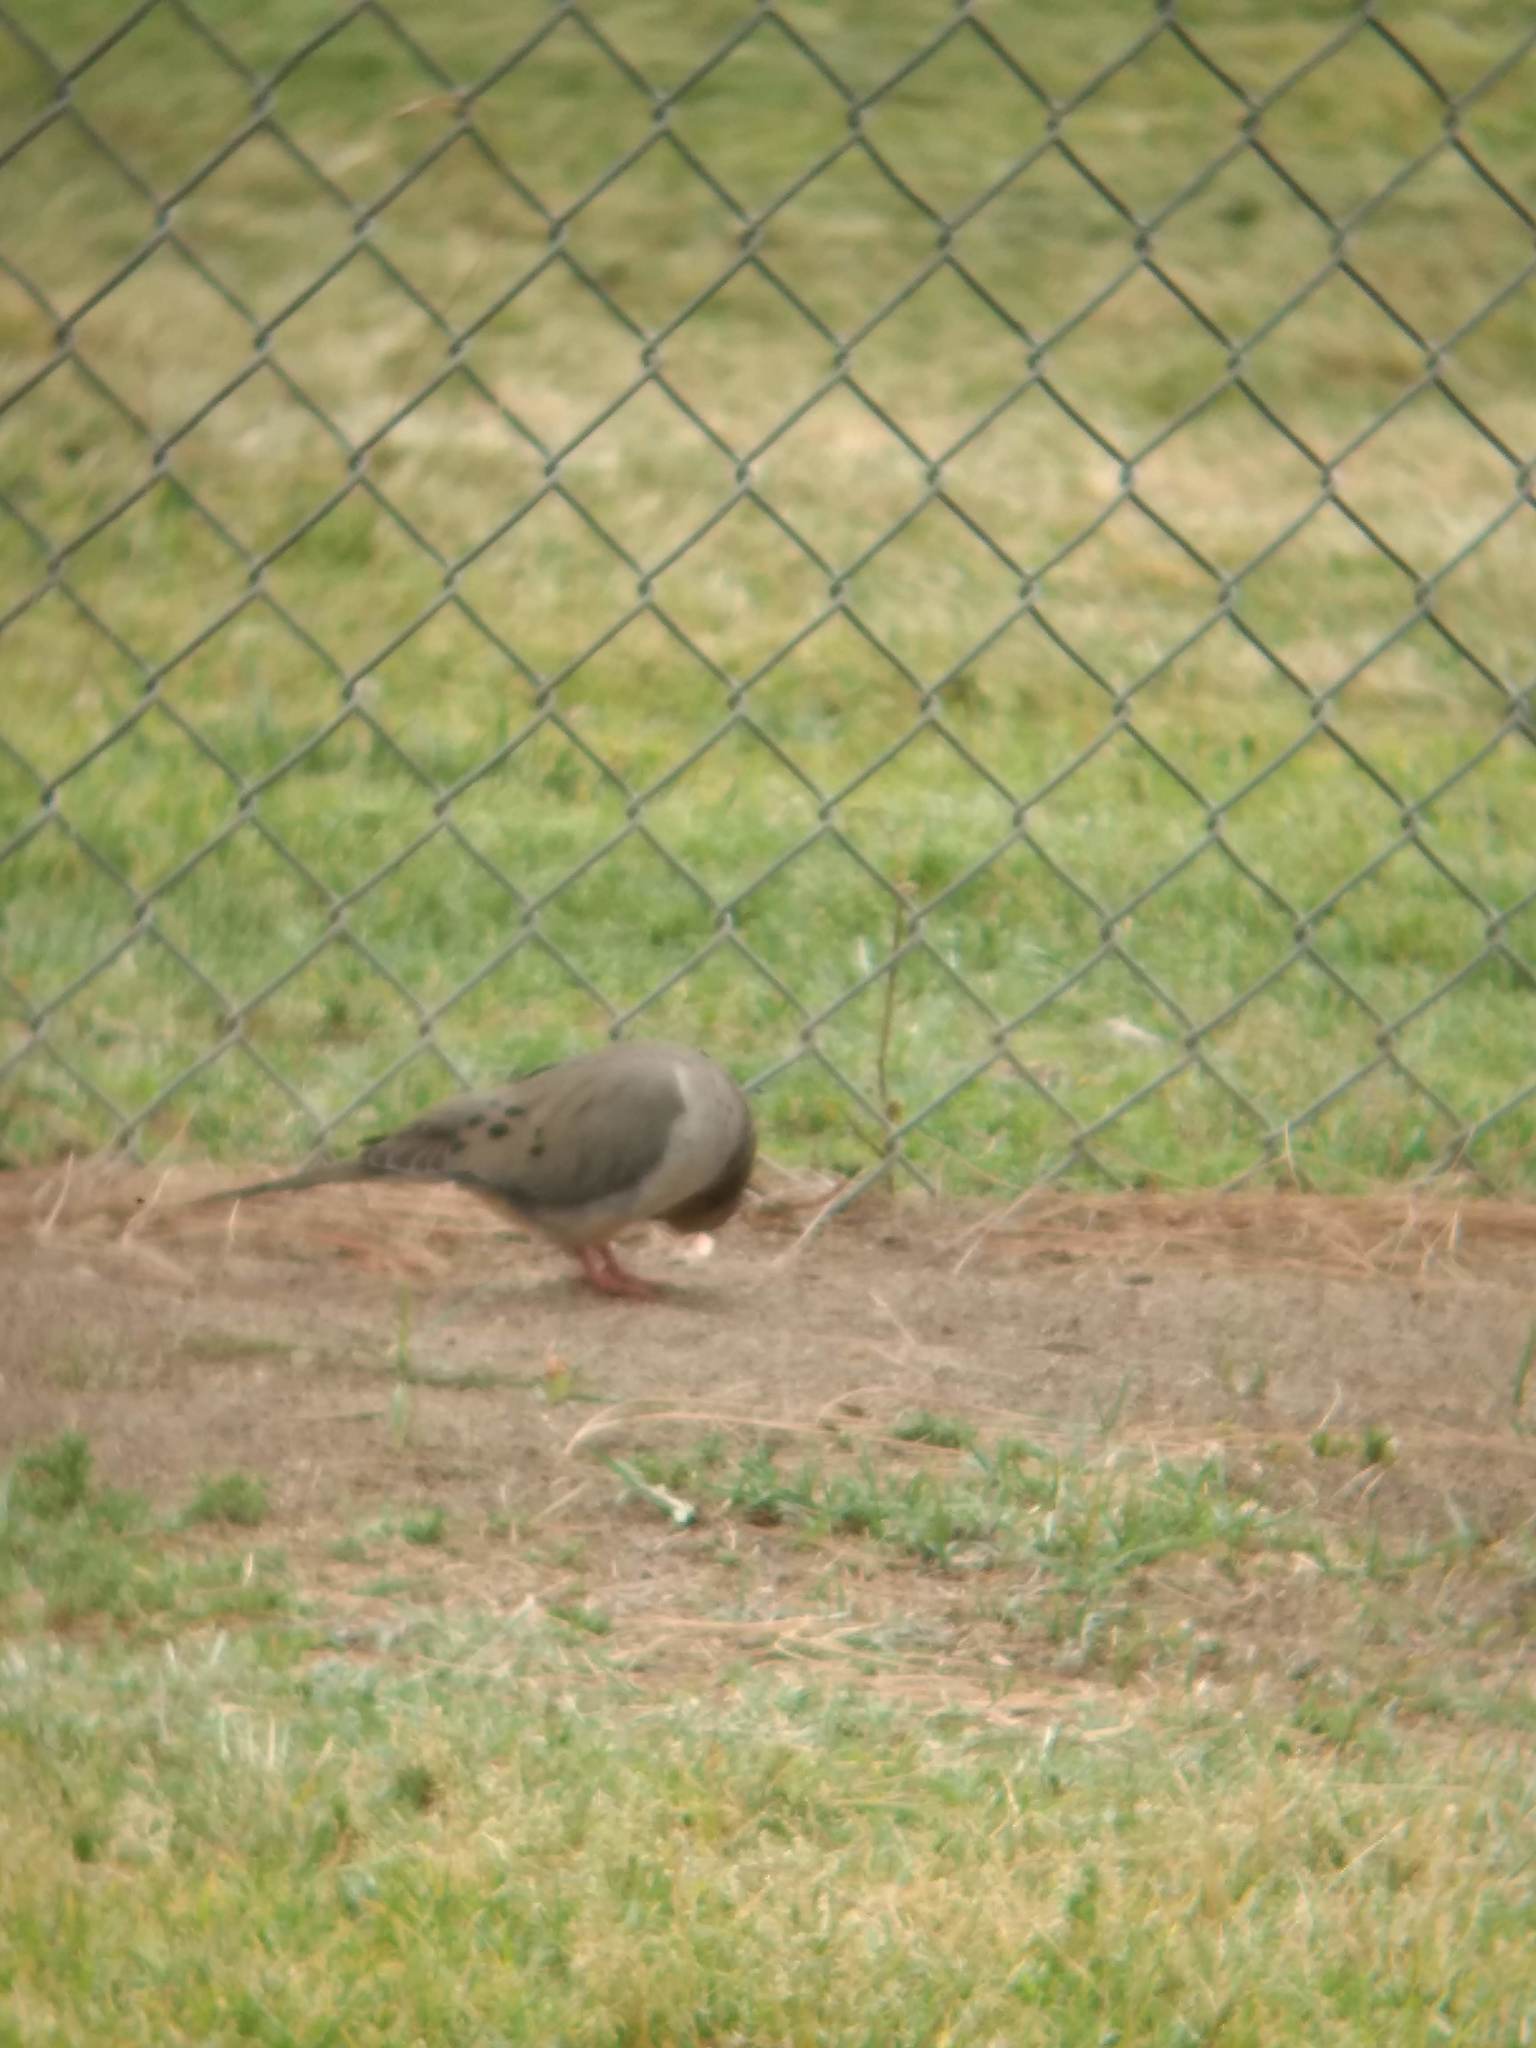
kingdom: Animalia
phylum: Chordata
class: Aves
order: Columbiformes
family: Columbidae
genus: Zenaida
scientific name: Zenaida macroura
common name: Mourning dove
